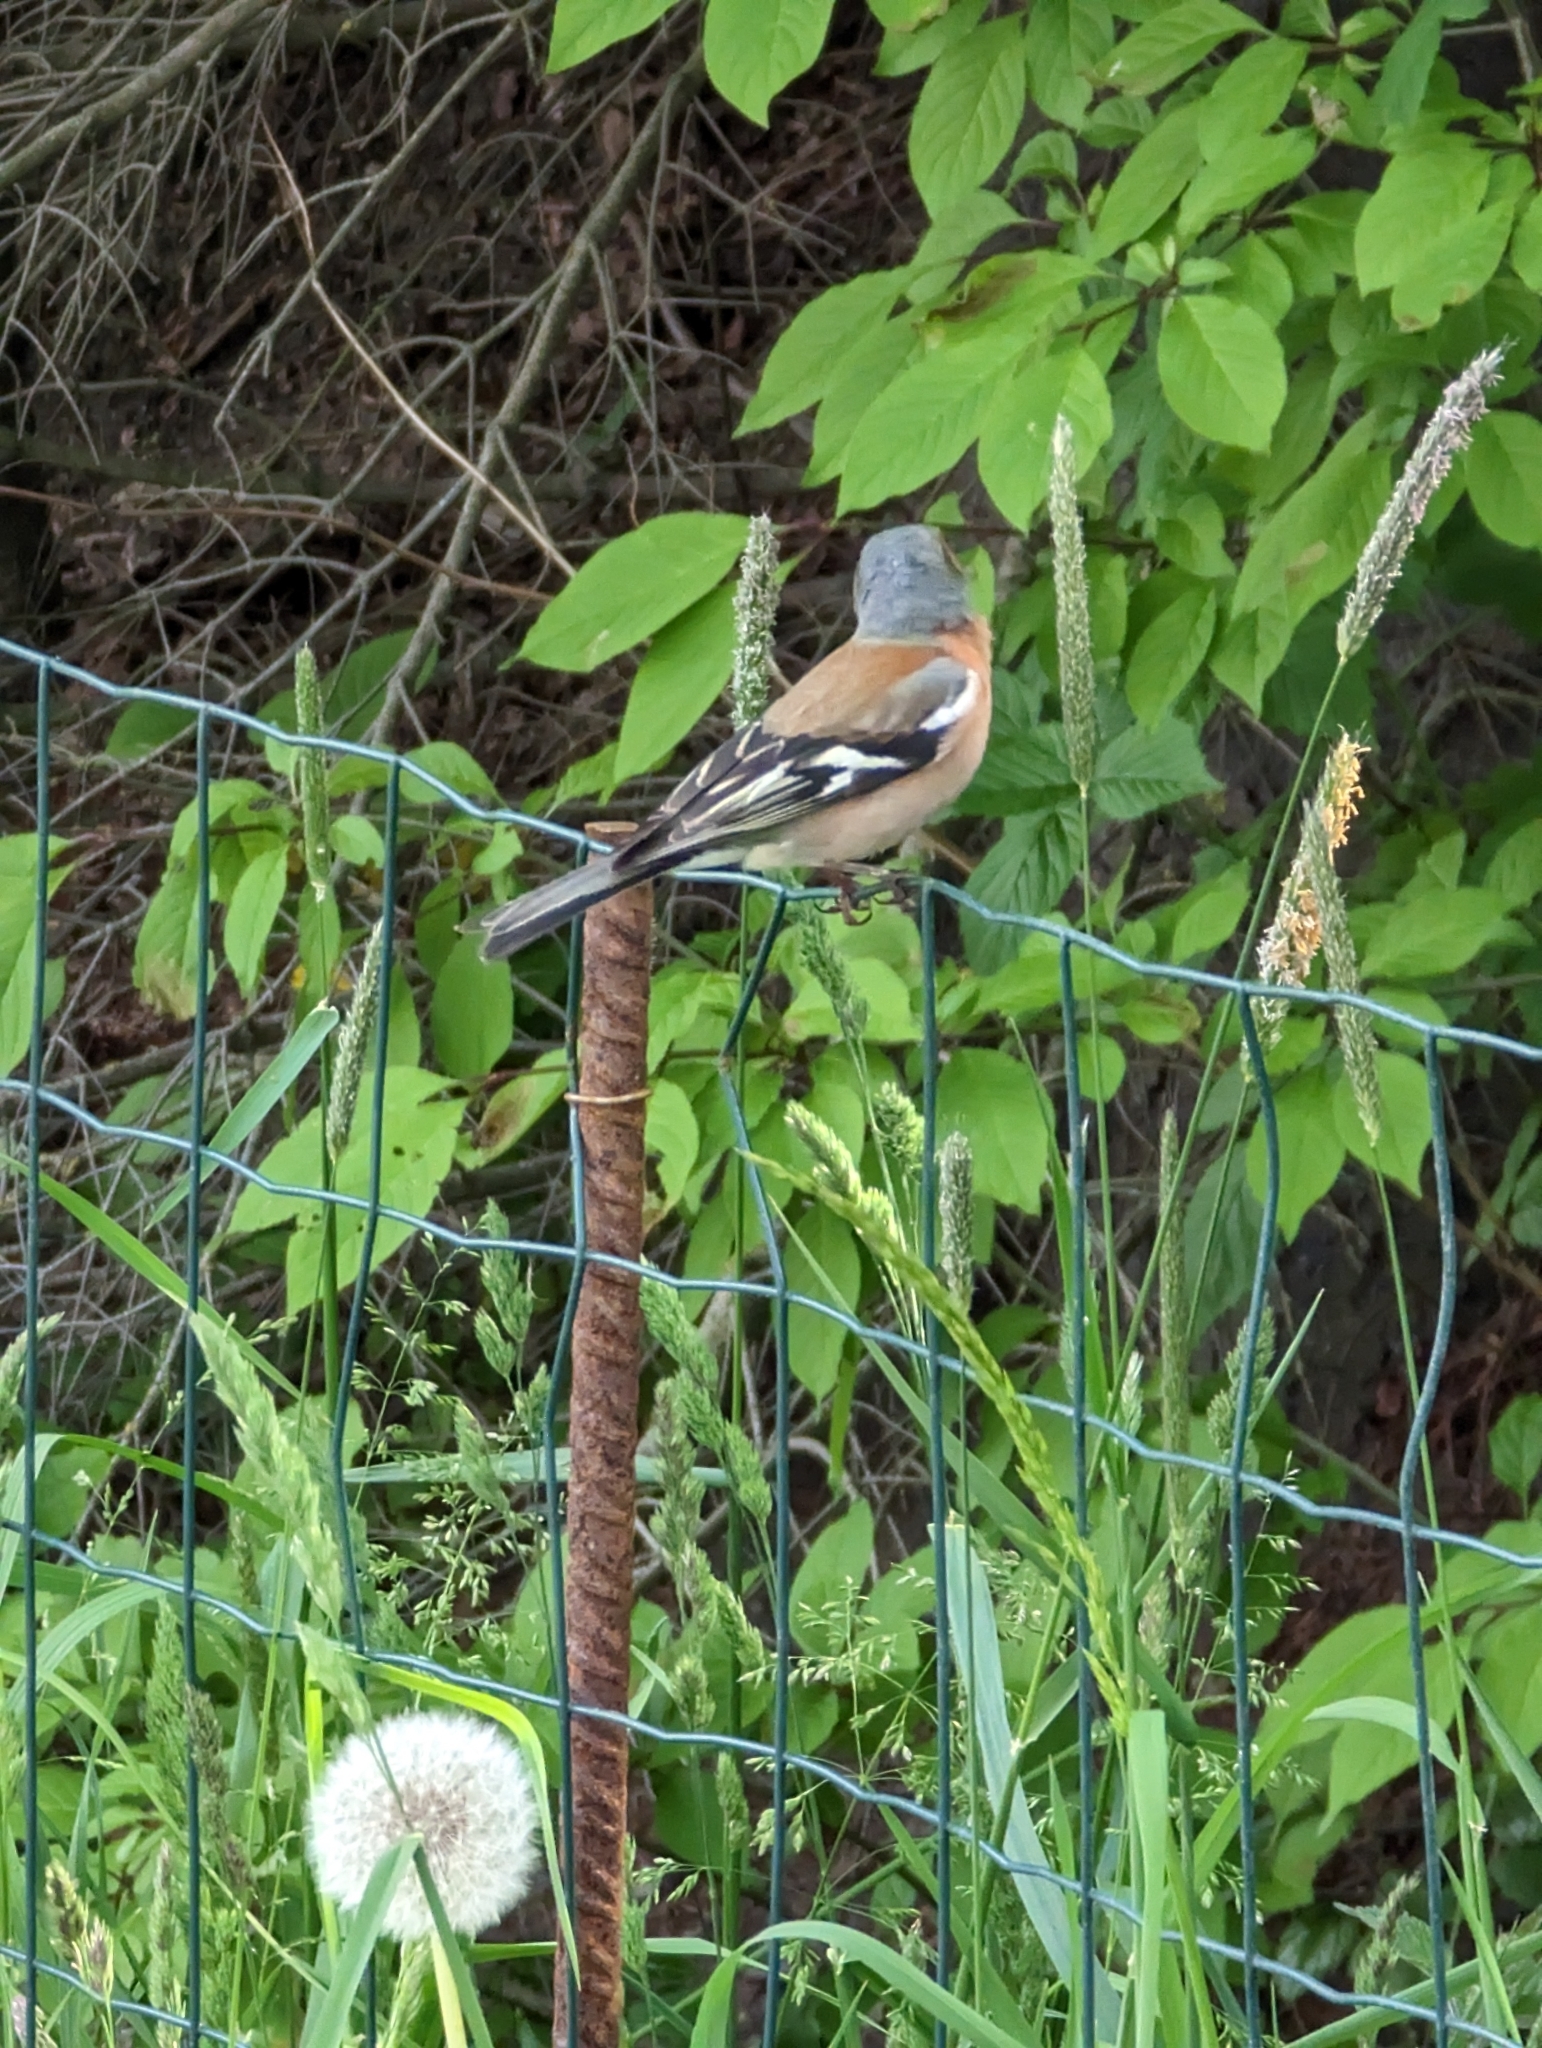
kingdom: Animalia
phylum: Chordata
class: Aves
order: Passeriformes
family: Fringillidae
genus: Fringilla
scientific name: Fringilla coelebs
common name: Common chaffinch
